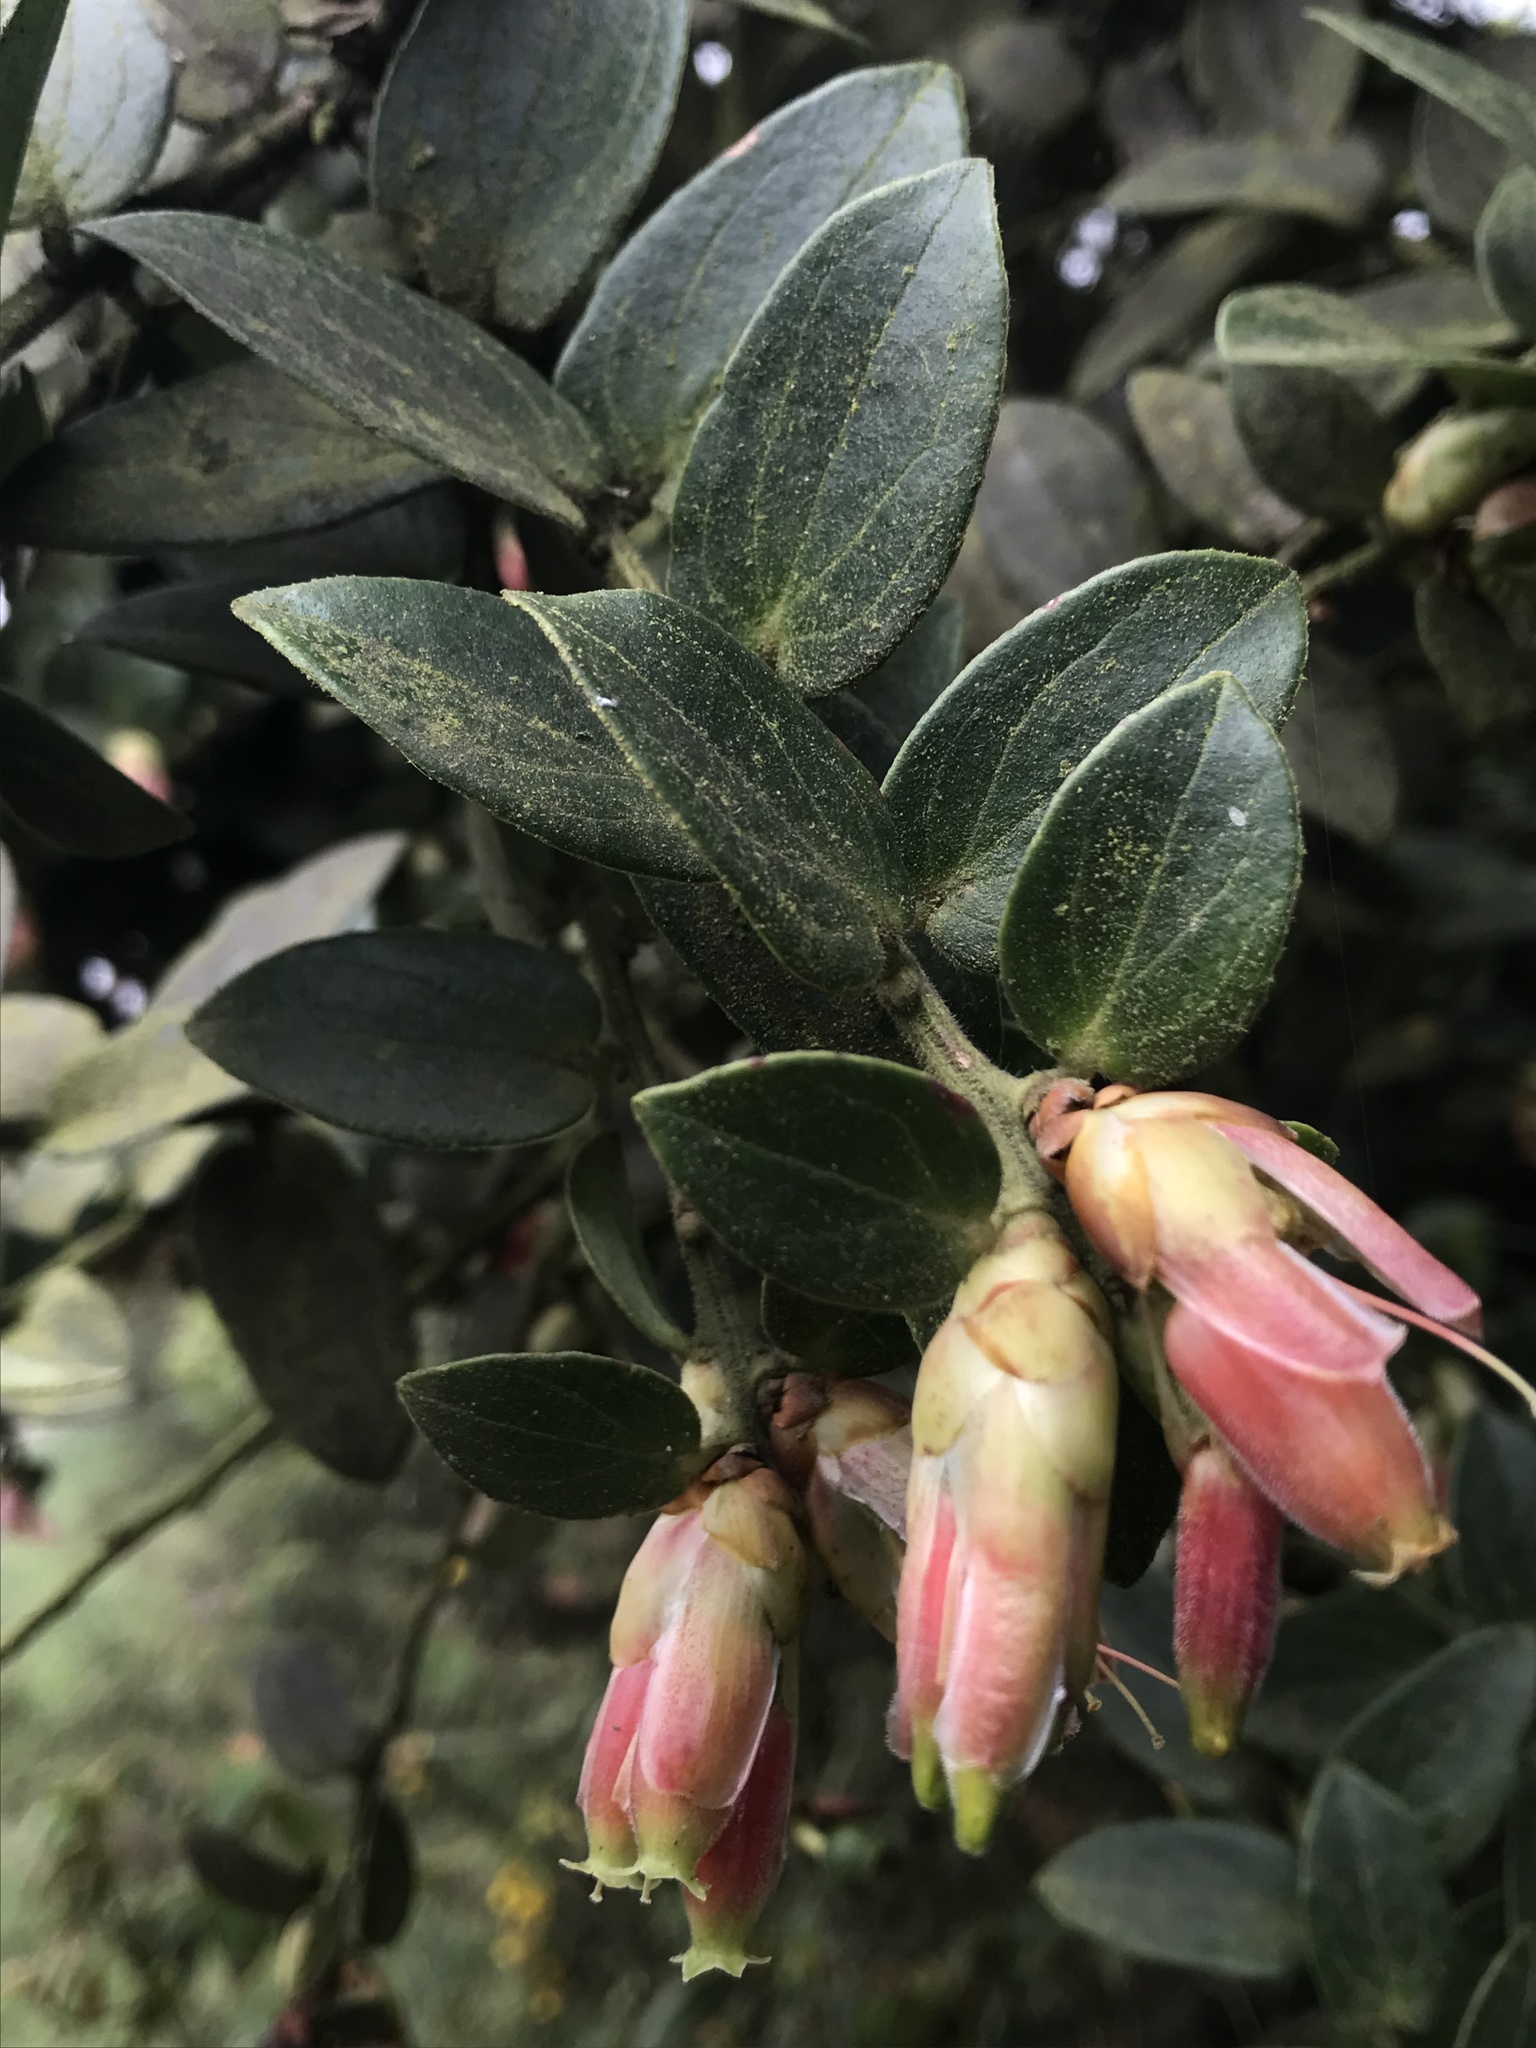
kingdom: Plantae
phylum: Tracheophyta
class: Magnoliopsida
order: Ericales
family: Ericaceae
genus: Cavendishia
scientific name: Cavendishia bracteata
